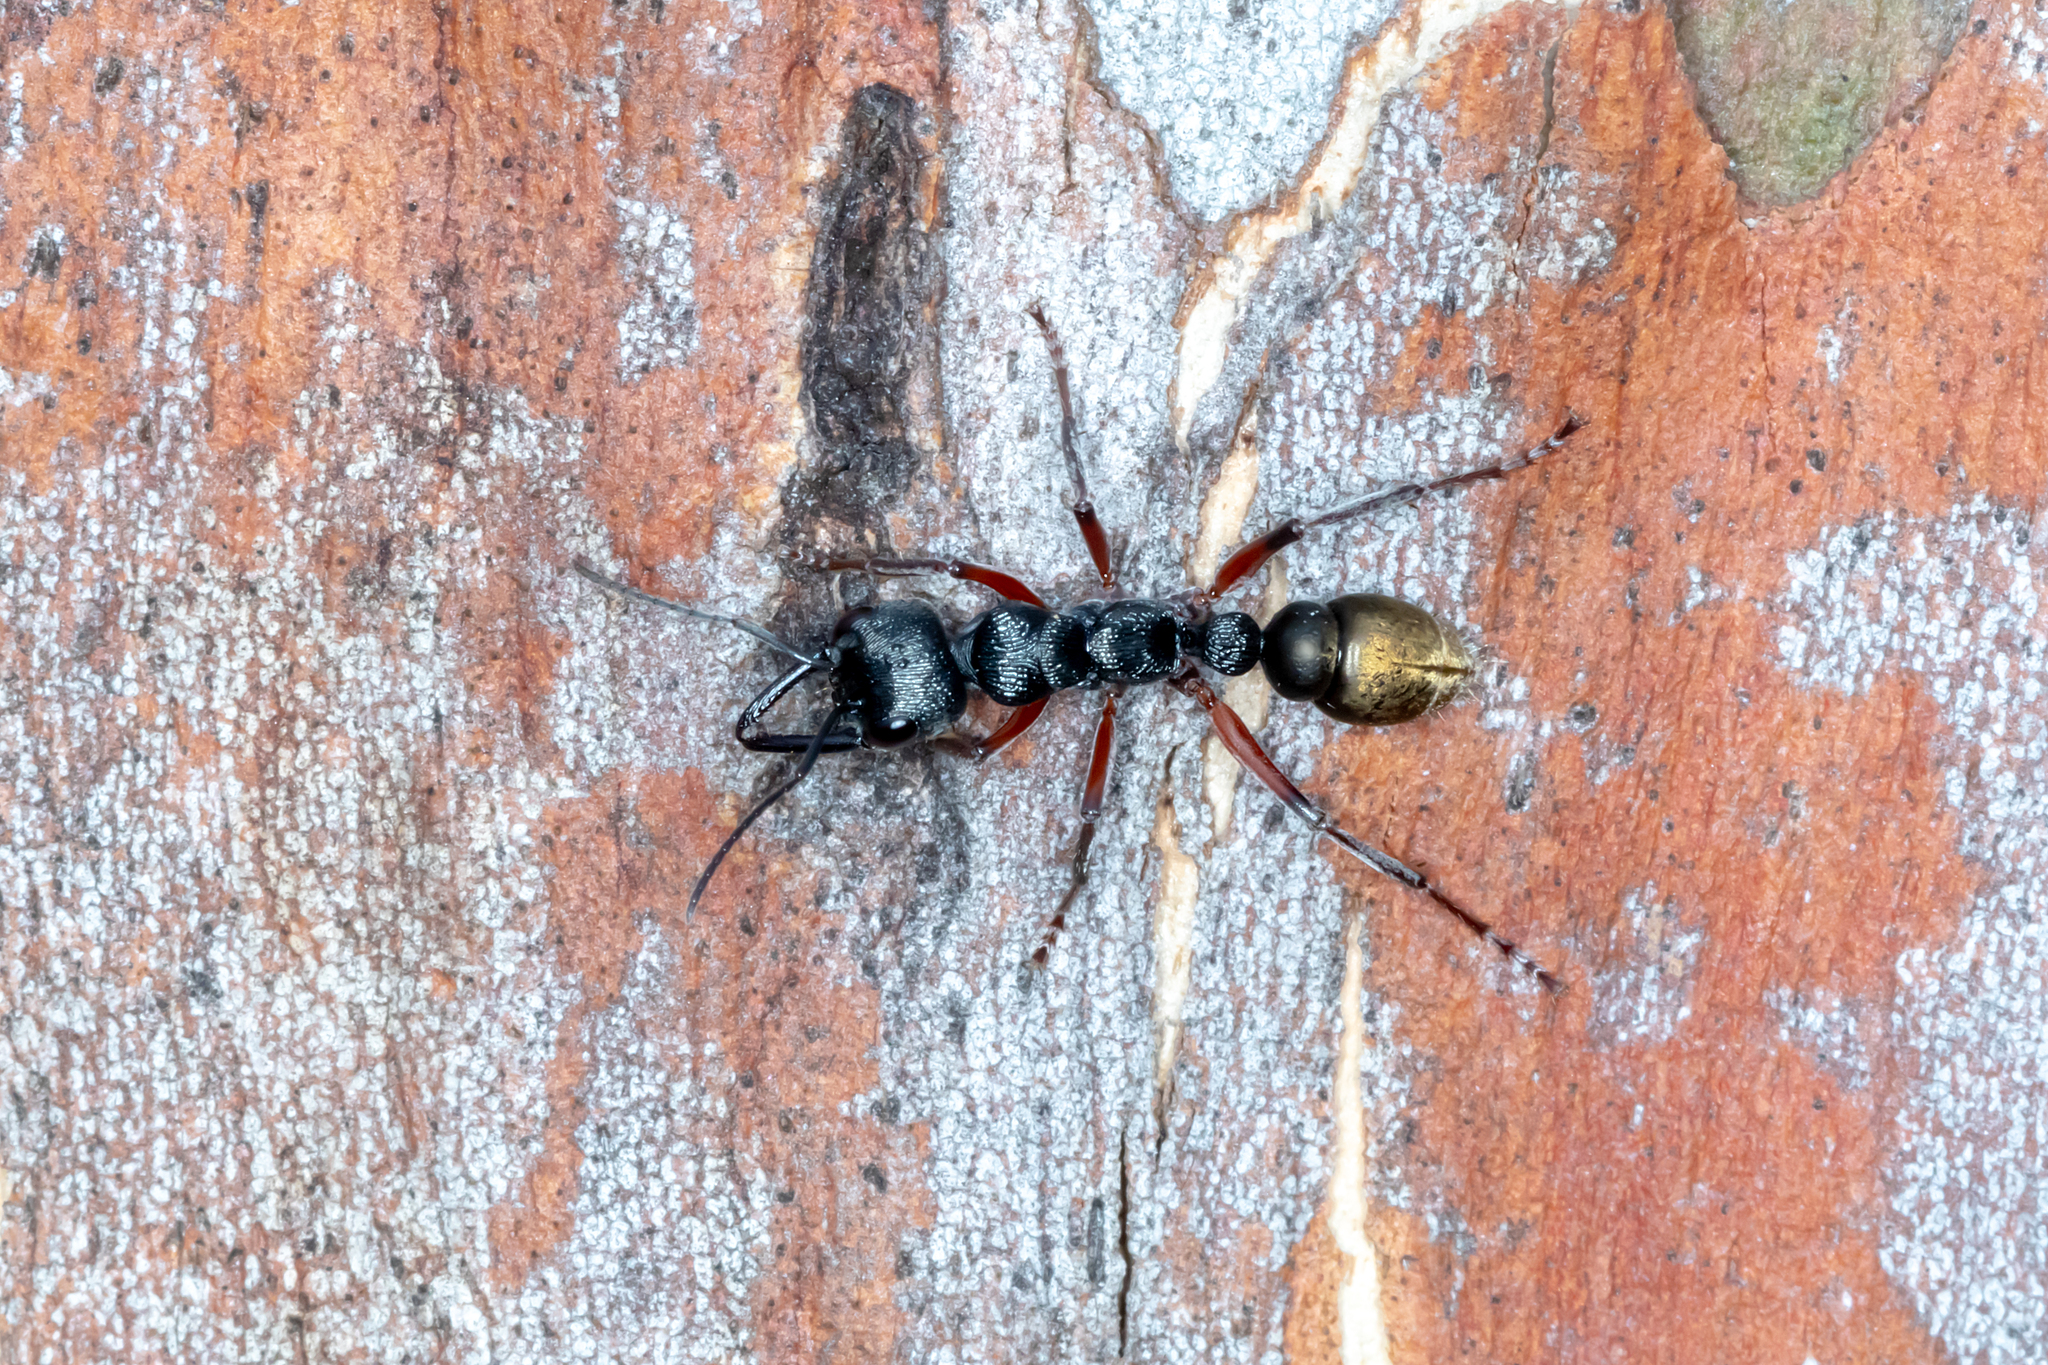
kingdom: Animalia
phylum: Arthropoda
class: Insecta
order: Hymenoptera
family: Formicidae
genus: Myrmecia
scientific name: Myrmecia fulvipes
